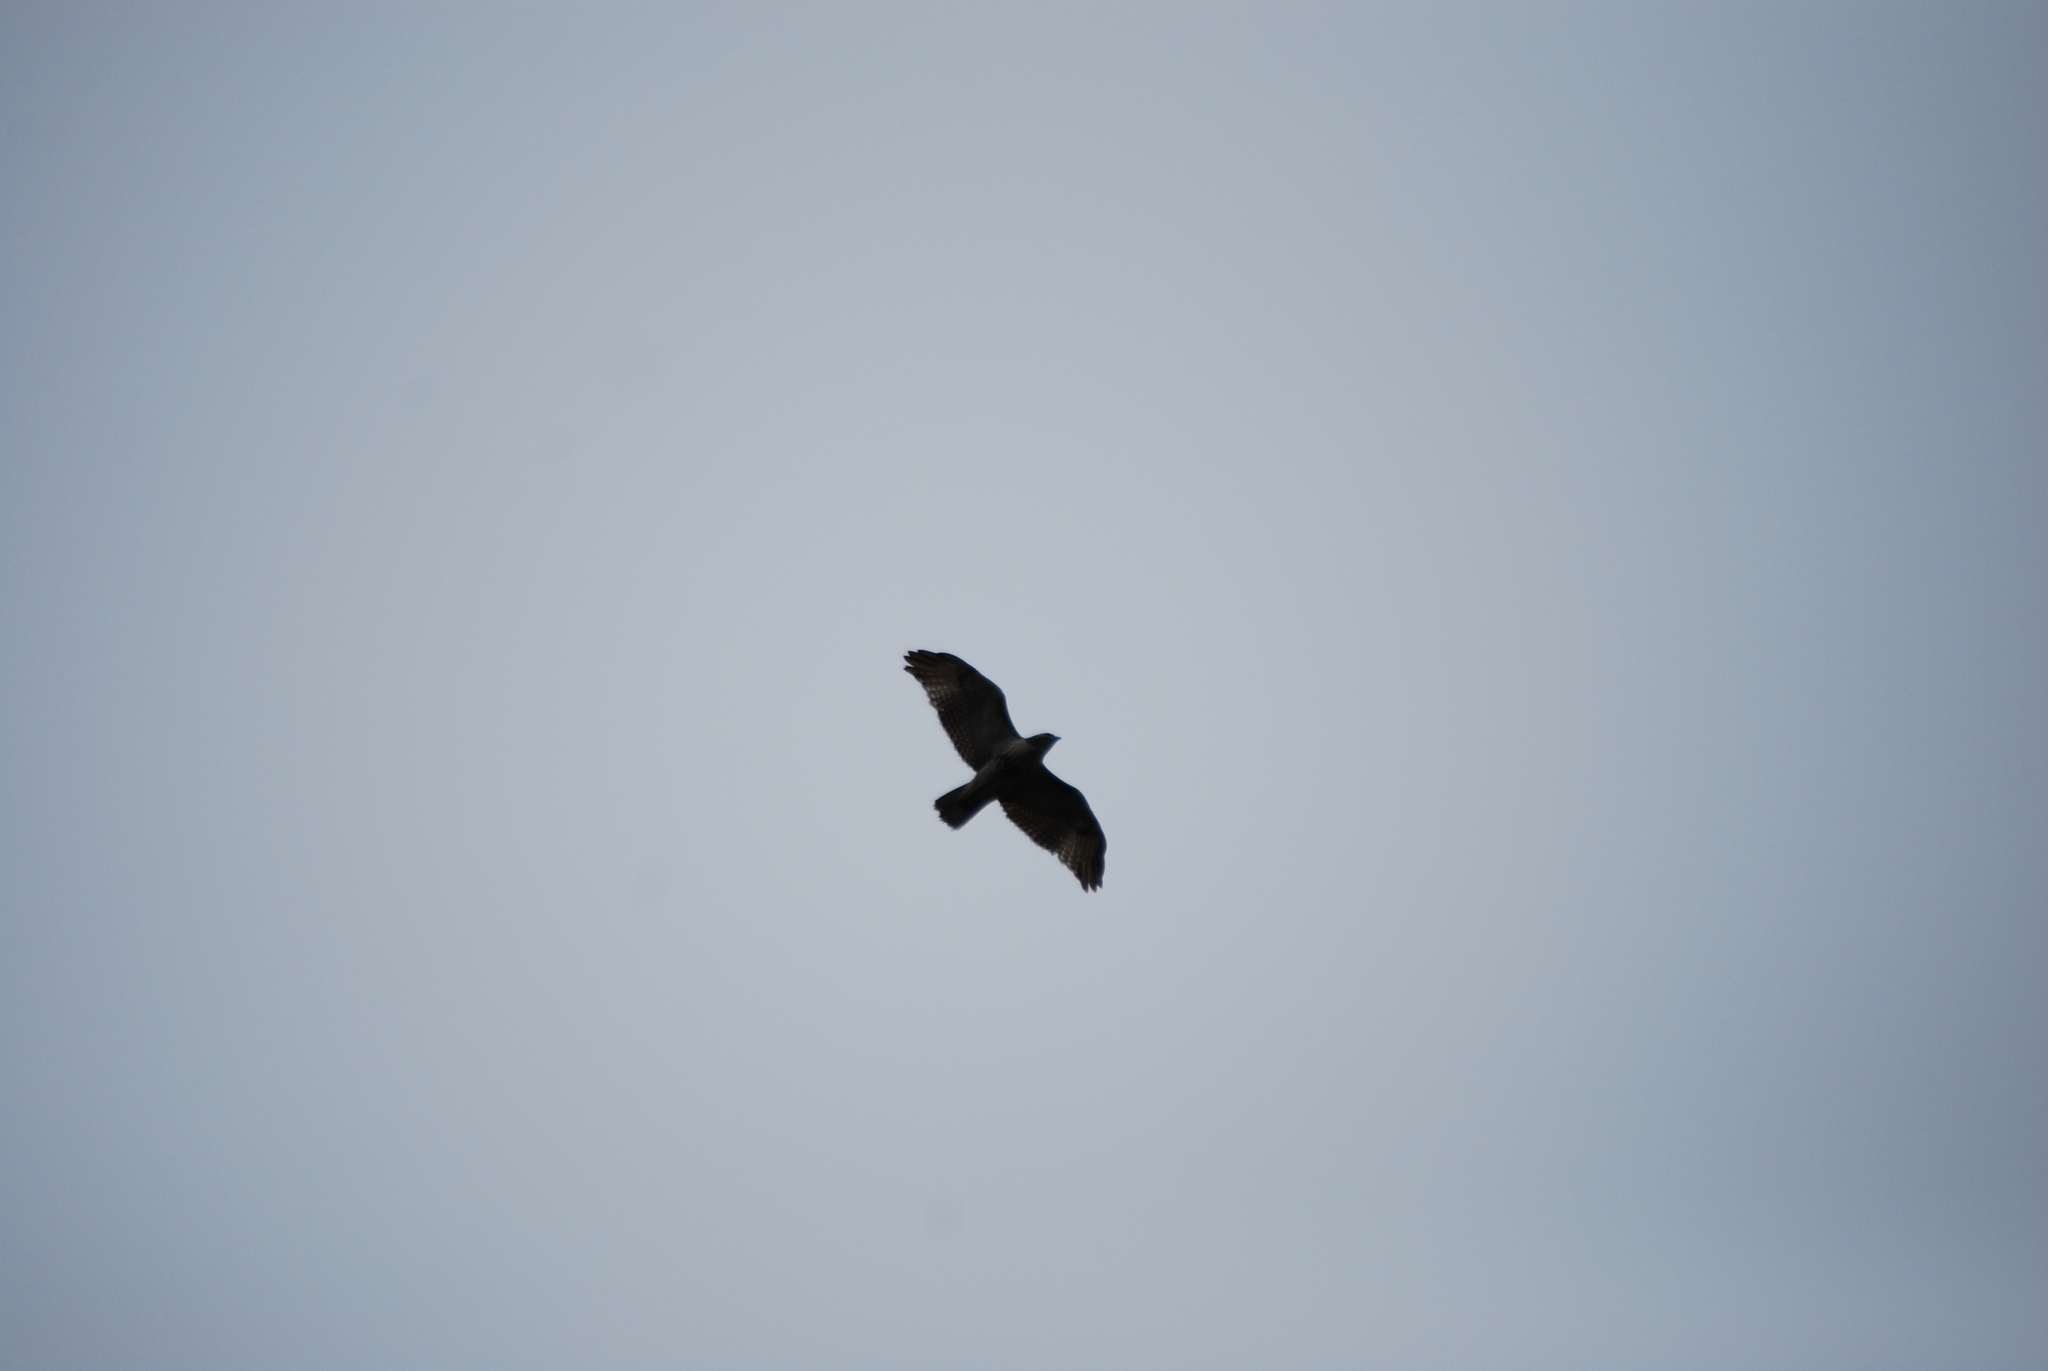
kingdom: Animalia
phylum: Chordata
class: Aves
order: Accipitriformes
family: Accipitridae
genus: Buteo
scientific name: Buteo jamaicensis
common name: Red-tailed hawk
